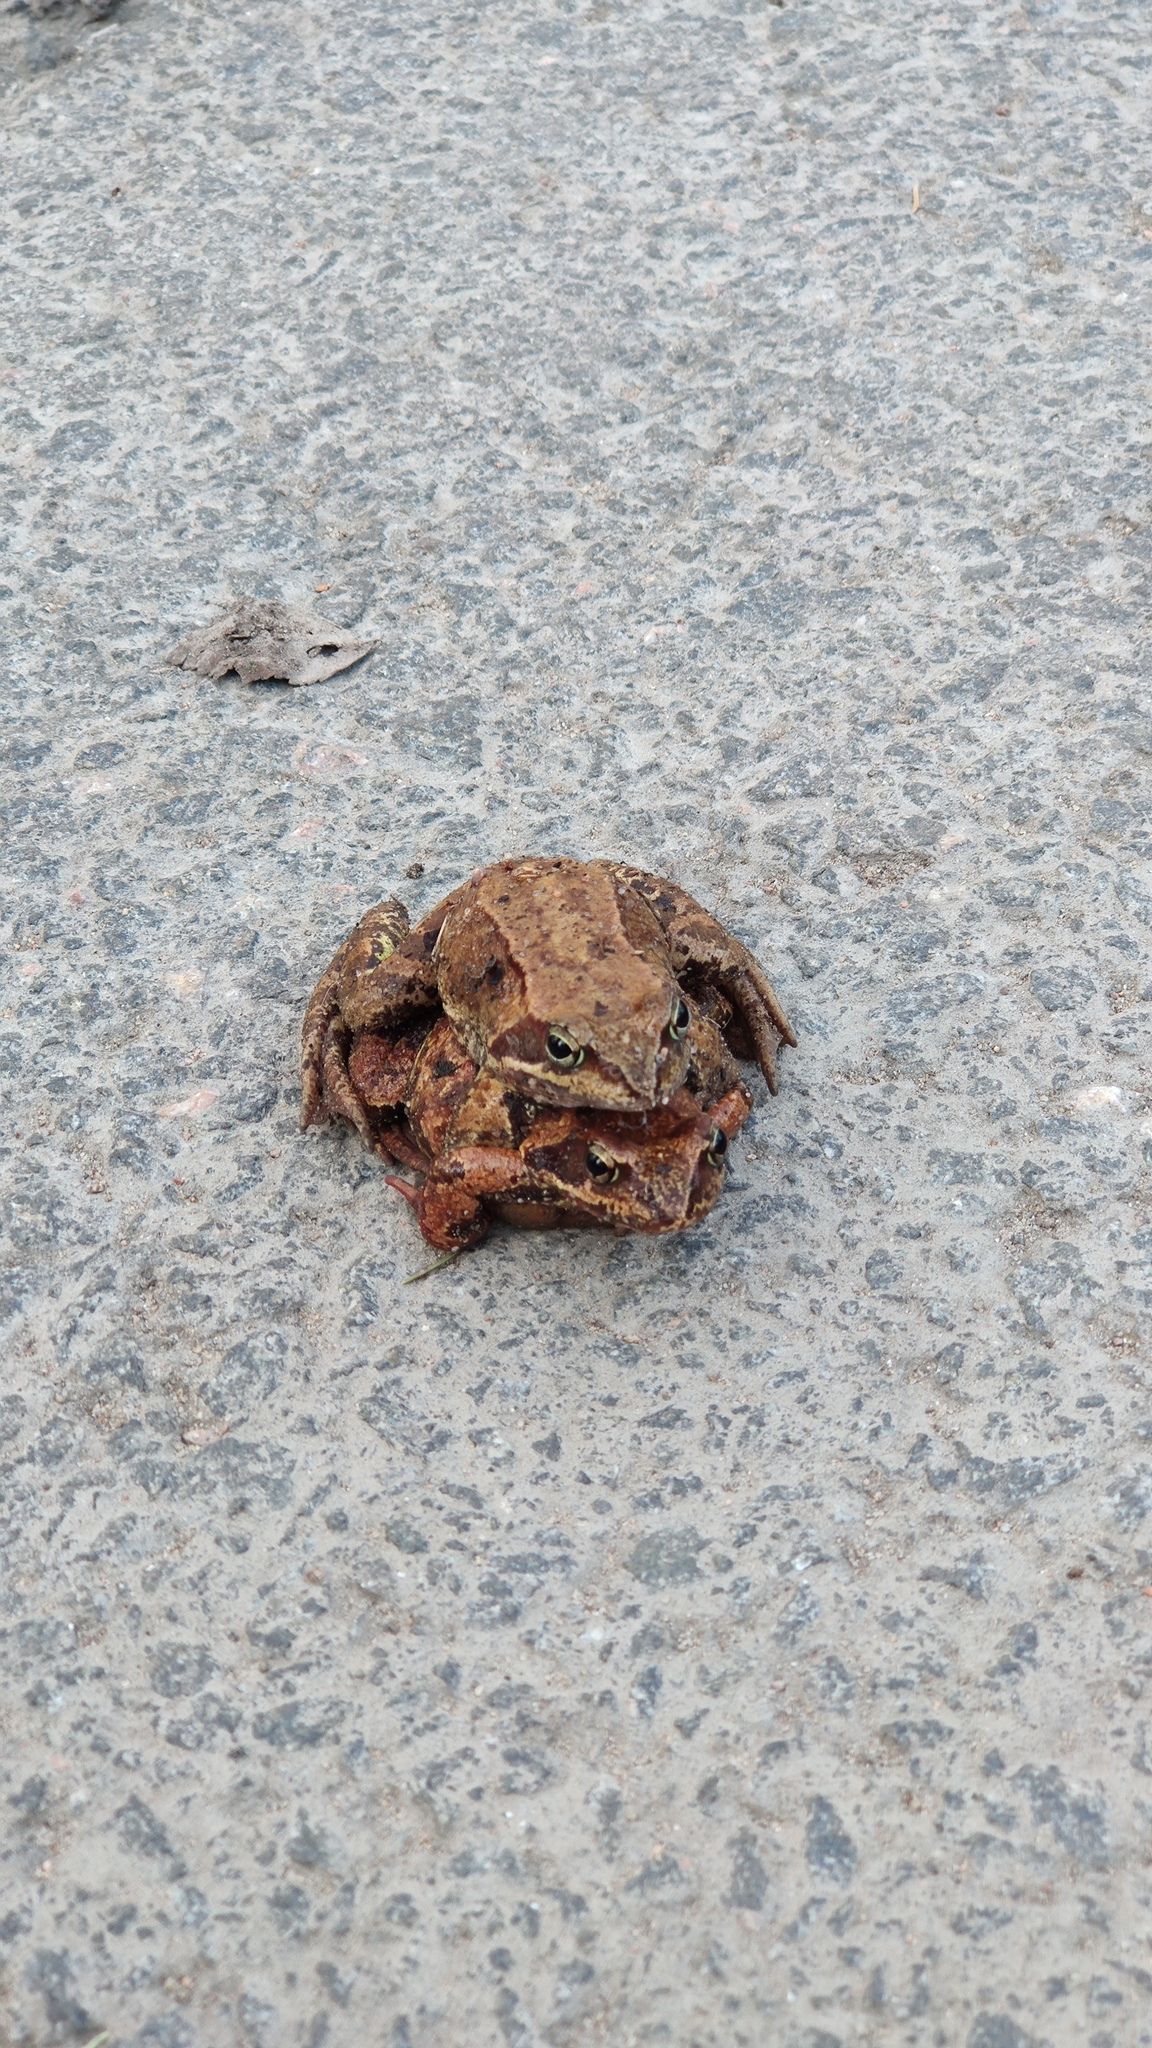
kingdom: Animalia
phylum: Chordata
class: Amphibia
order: Anura
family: Ranidae
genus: Rana
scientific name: Rana temporaria
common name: Common frog
